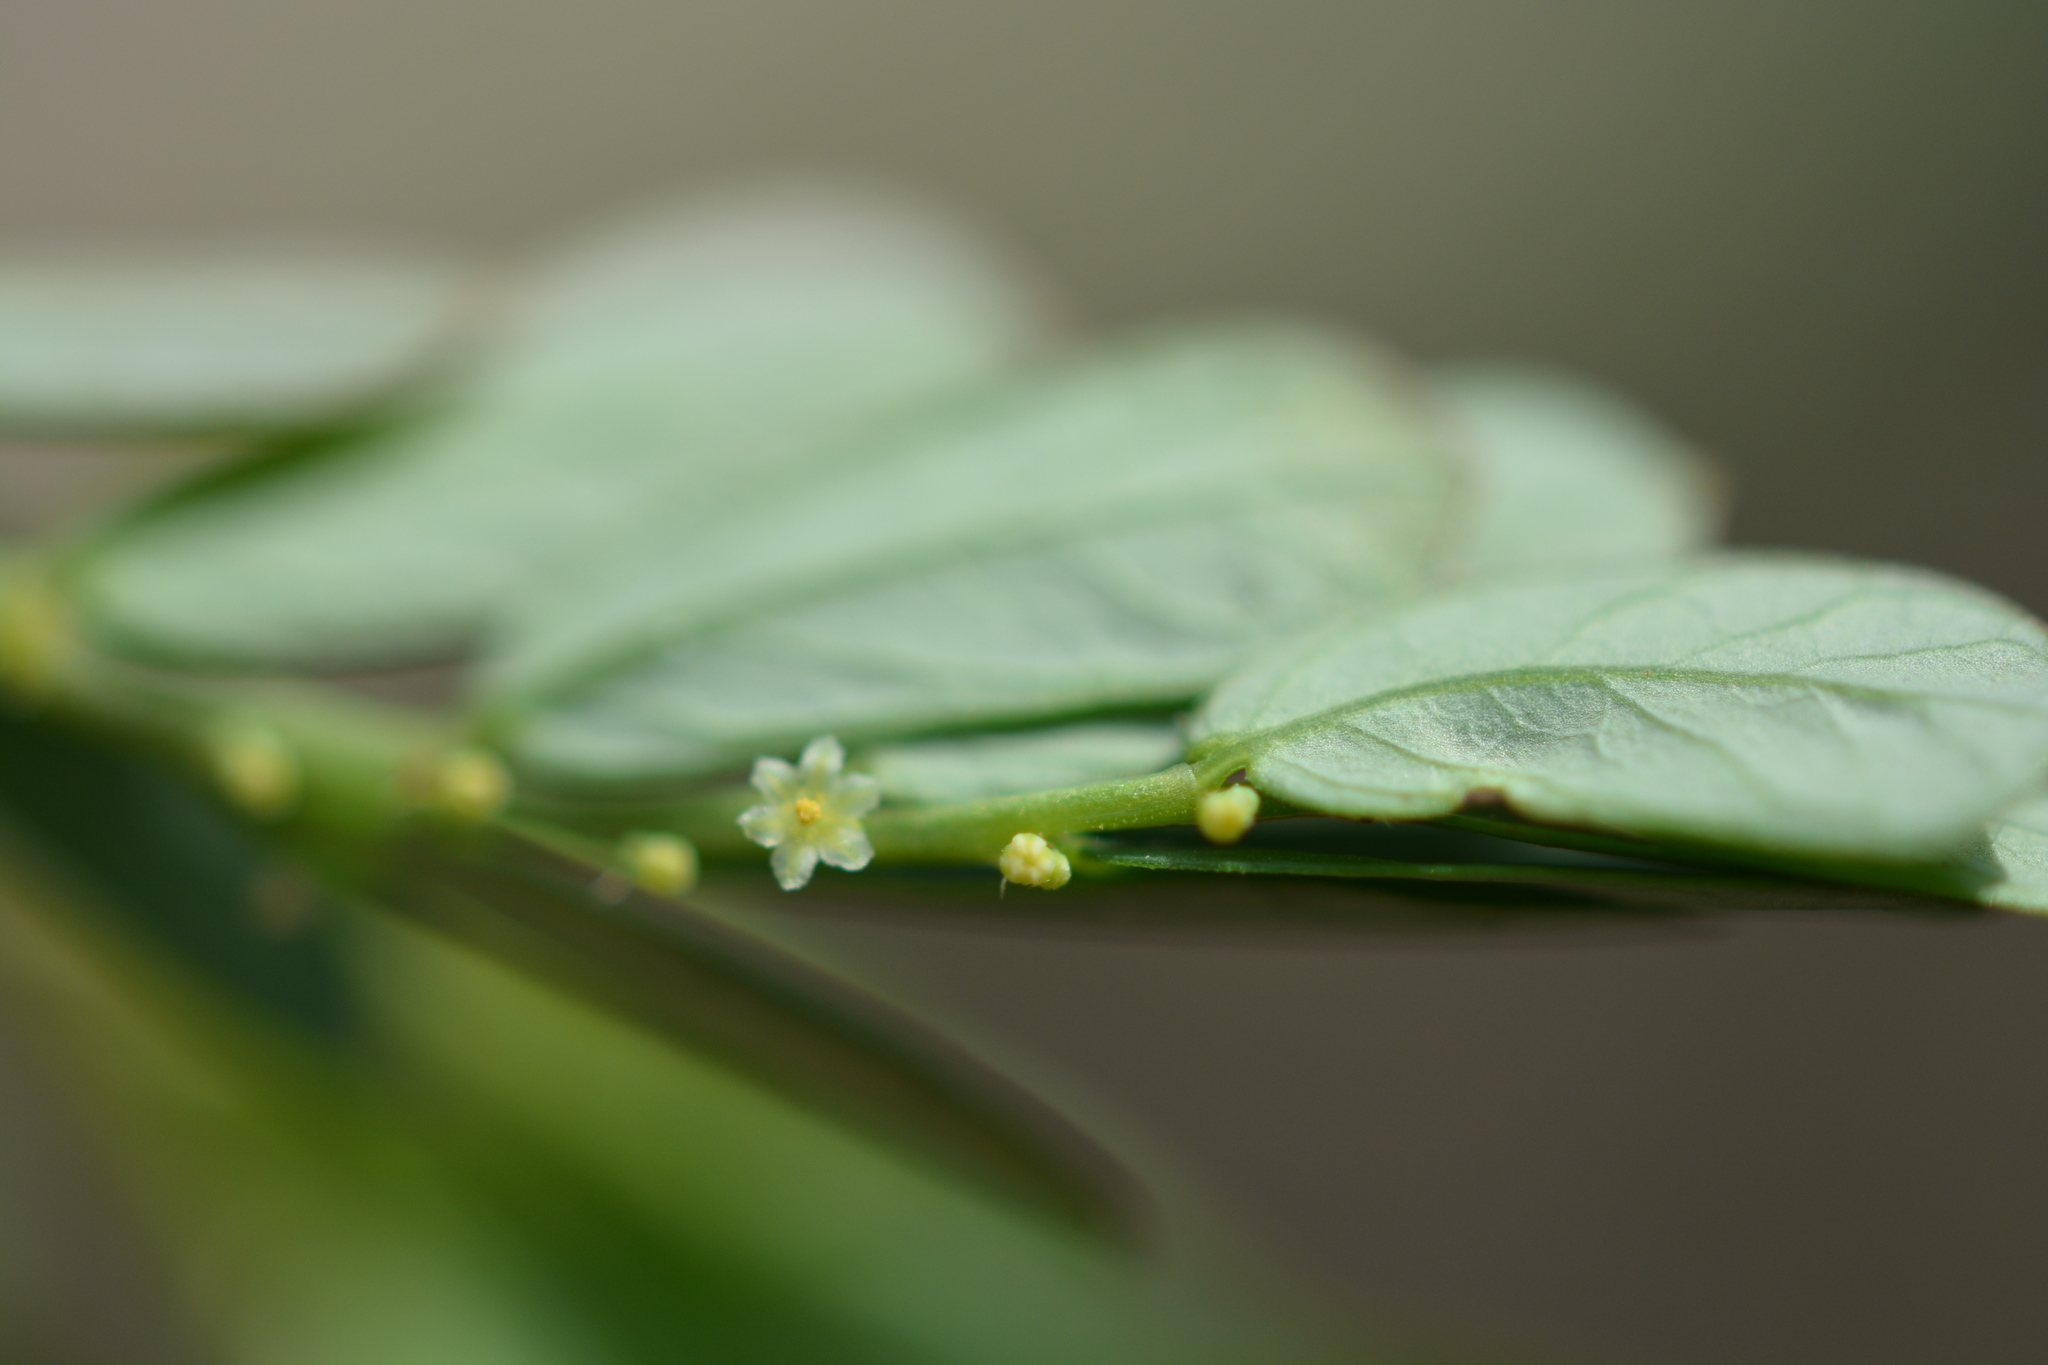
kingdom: Plantae
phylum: Tracheophyta
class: Magnoliopsida
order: Malpighiales
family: Phyllanthaceae
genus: Phyllanthus
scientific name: Phyllanthus urinaria
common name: Chamber bitter
